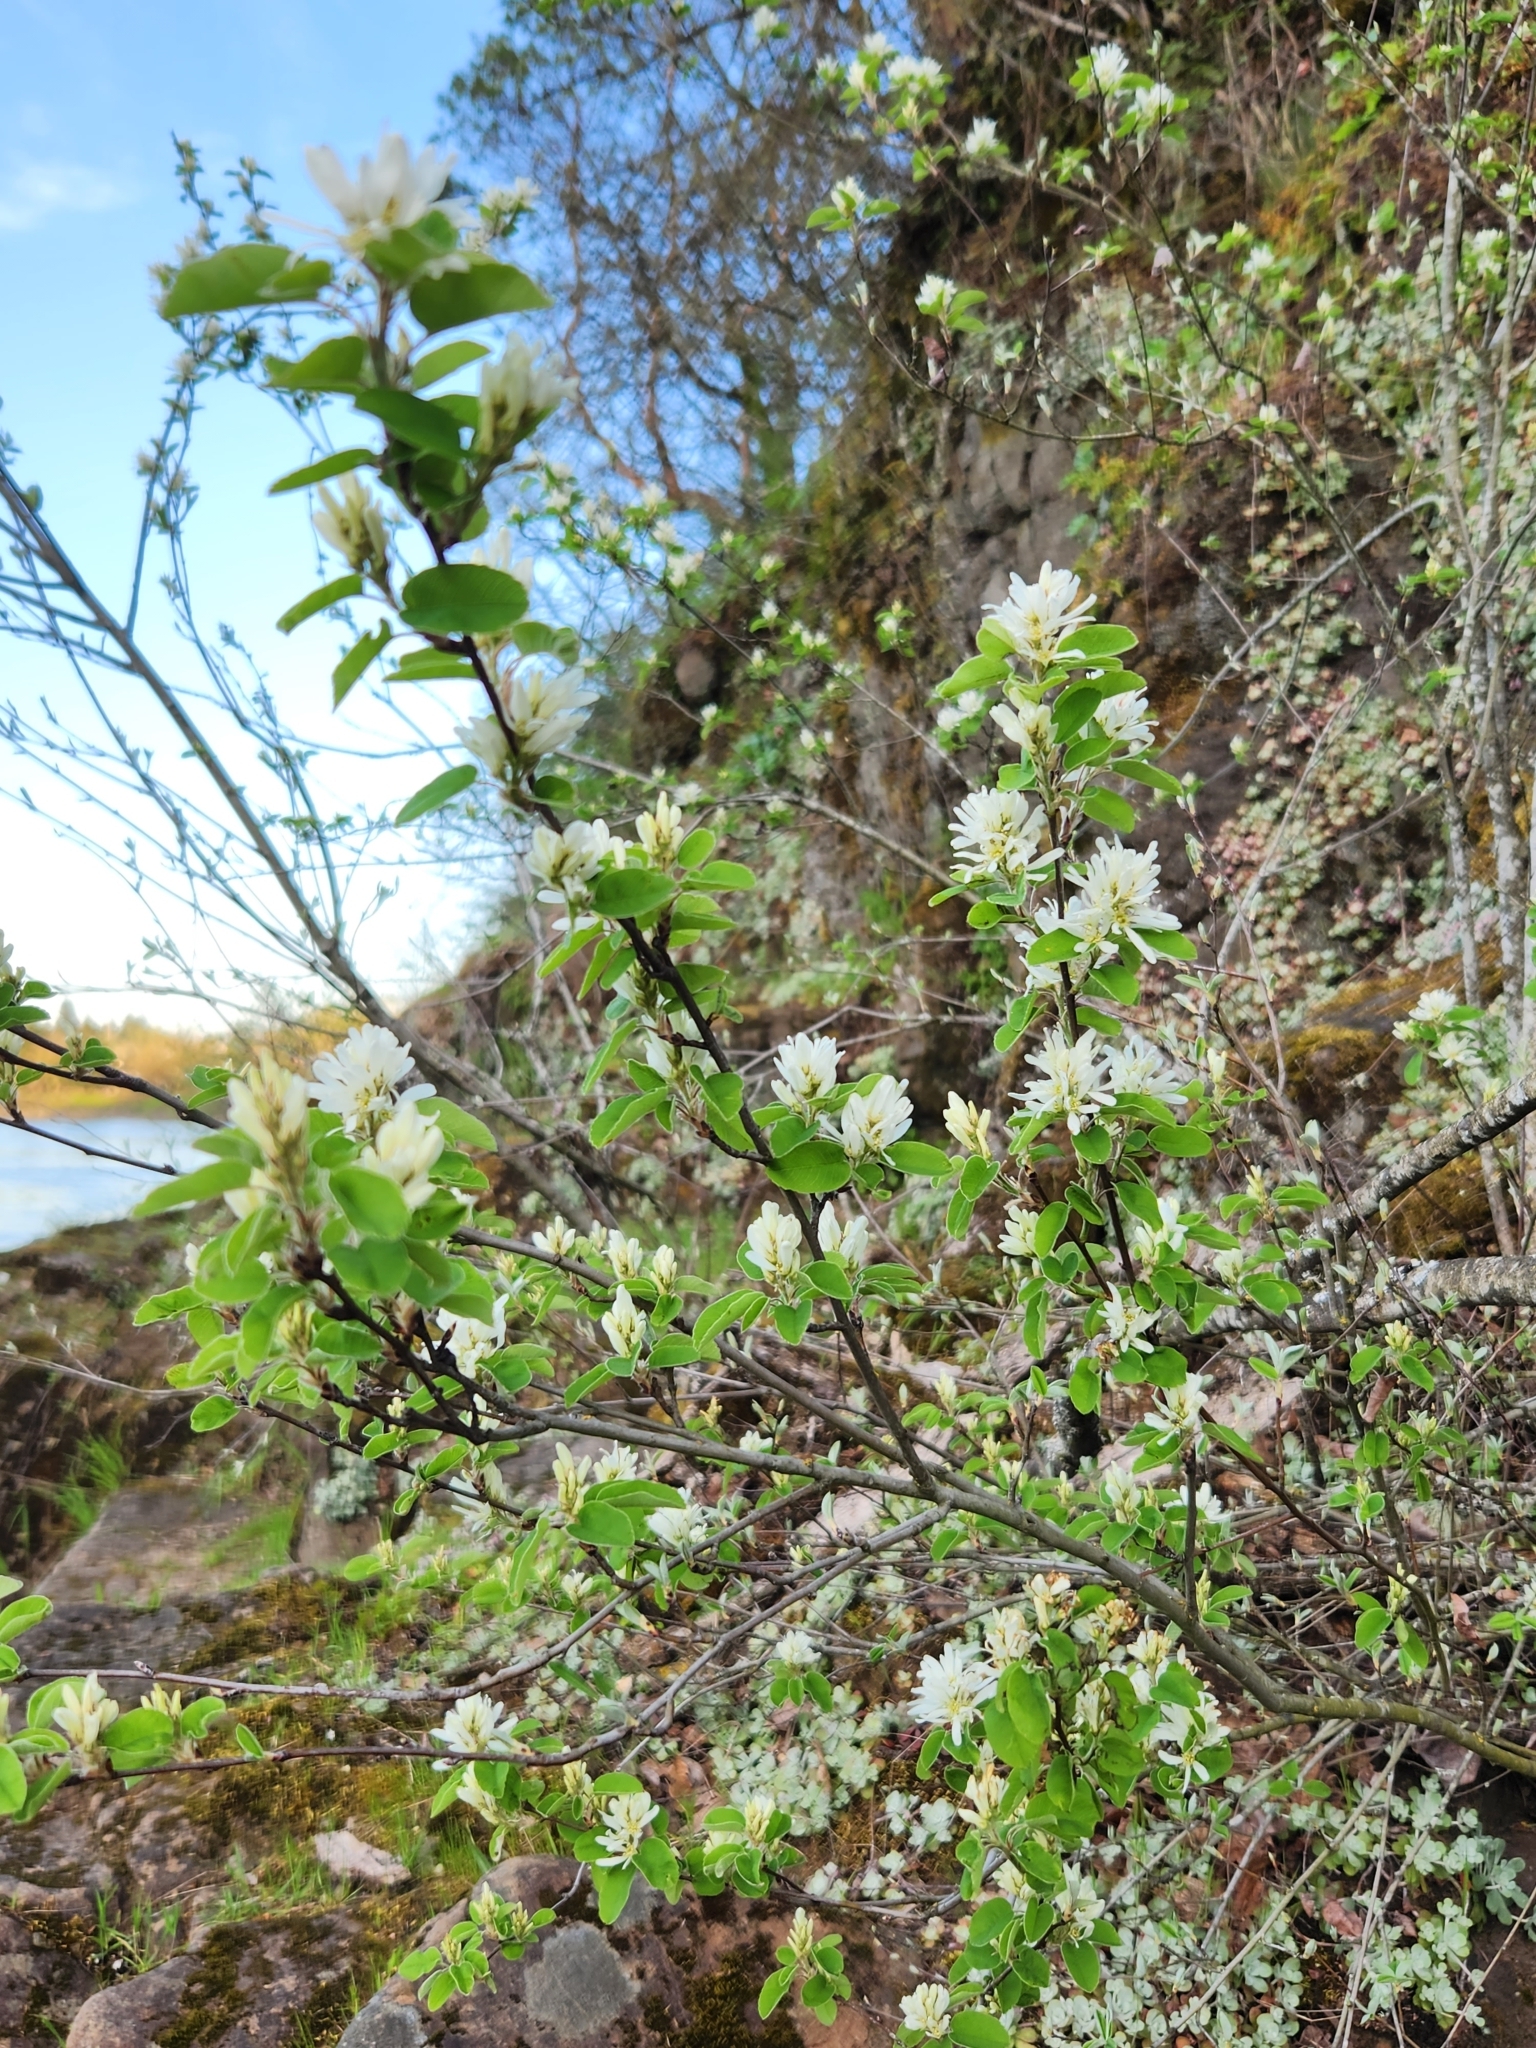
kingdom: Plantae
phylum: Tracheophyta
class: Magnoliopsida
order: Rosales
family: Rosaceae
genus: Amelanchier
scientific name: Amelanchier alnifolia
